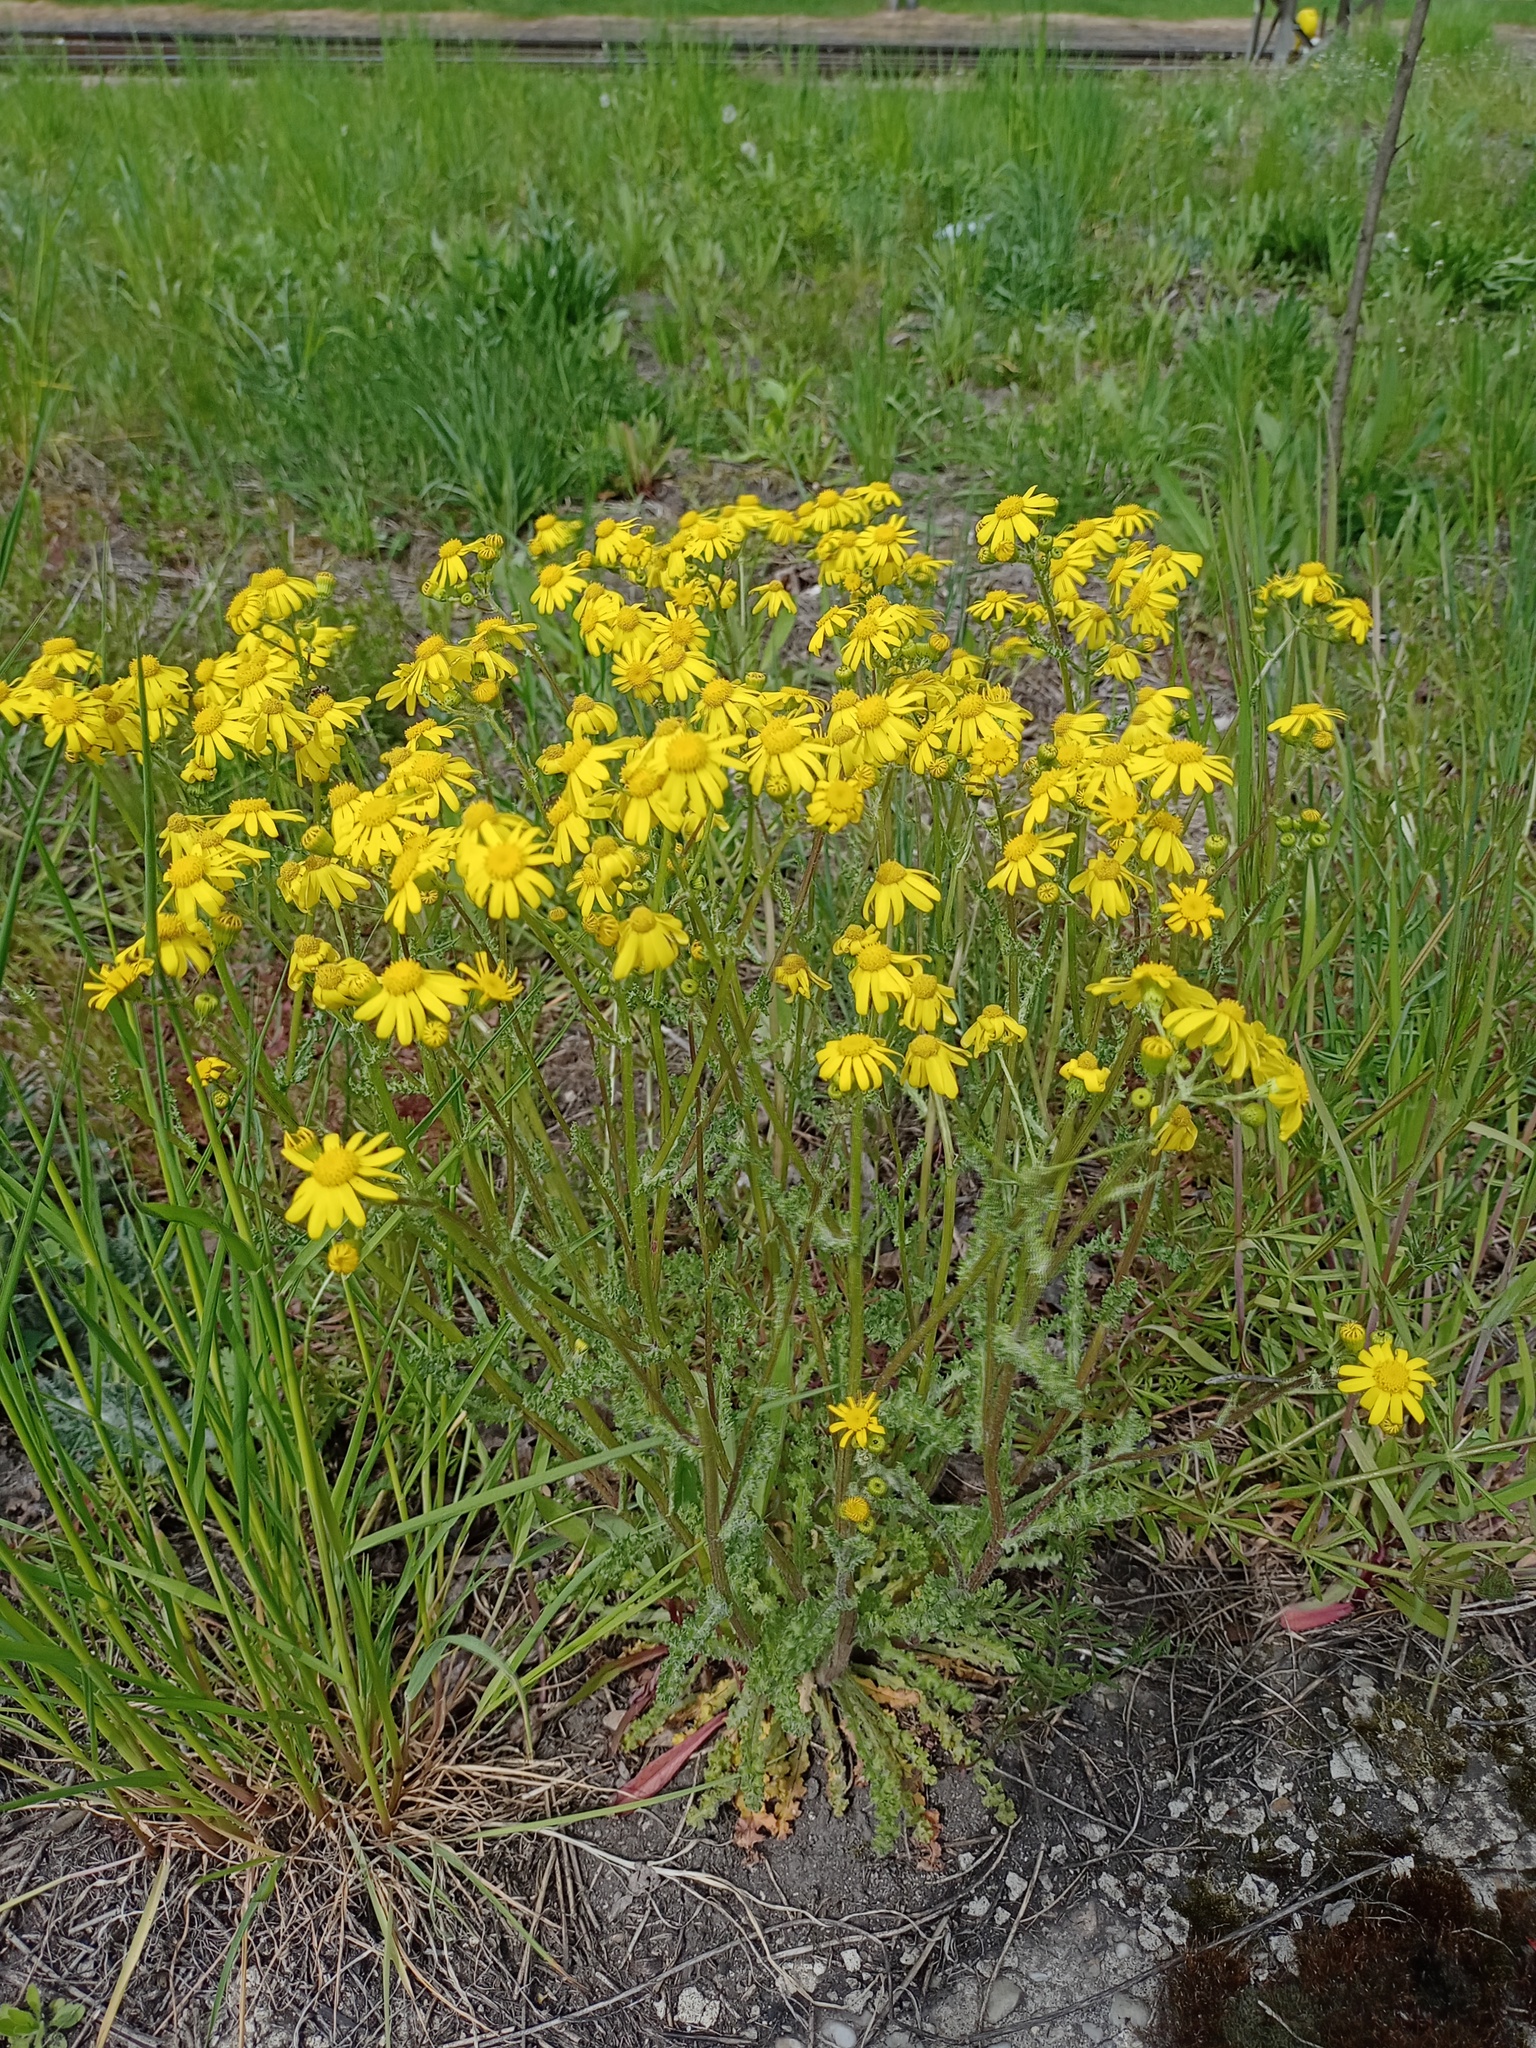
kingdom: Plantae
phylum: Tracheophyta
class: Magnoliopsida
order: Asterales
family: Asteraceae
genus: Senecio
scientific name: Senecio vernalis
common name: Eastern groundsel
